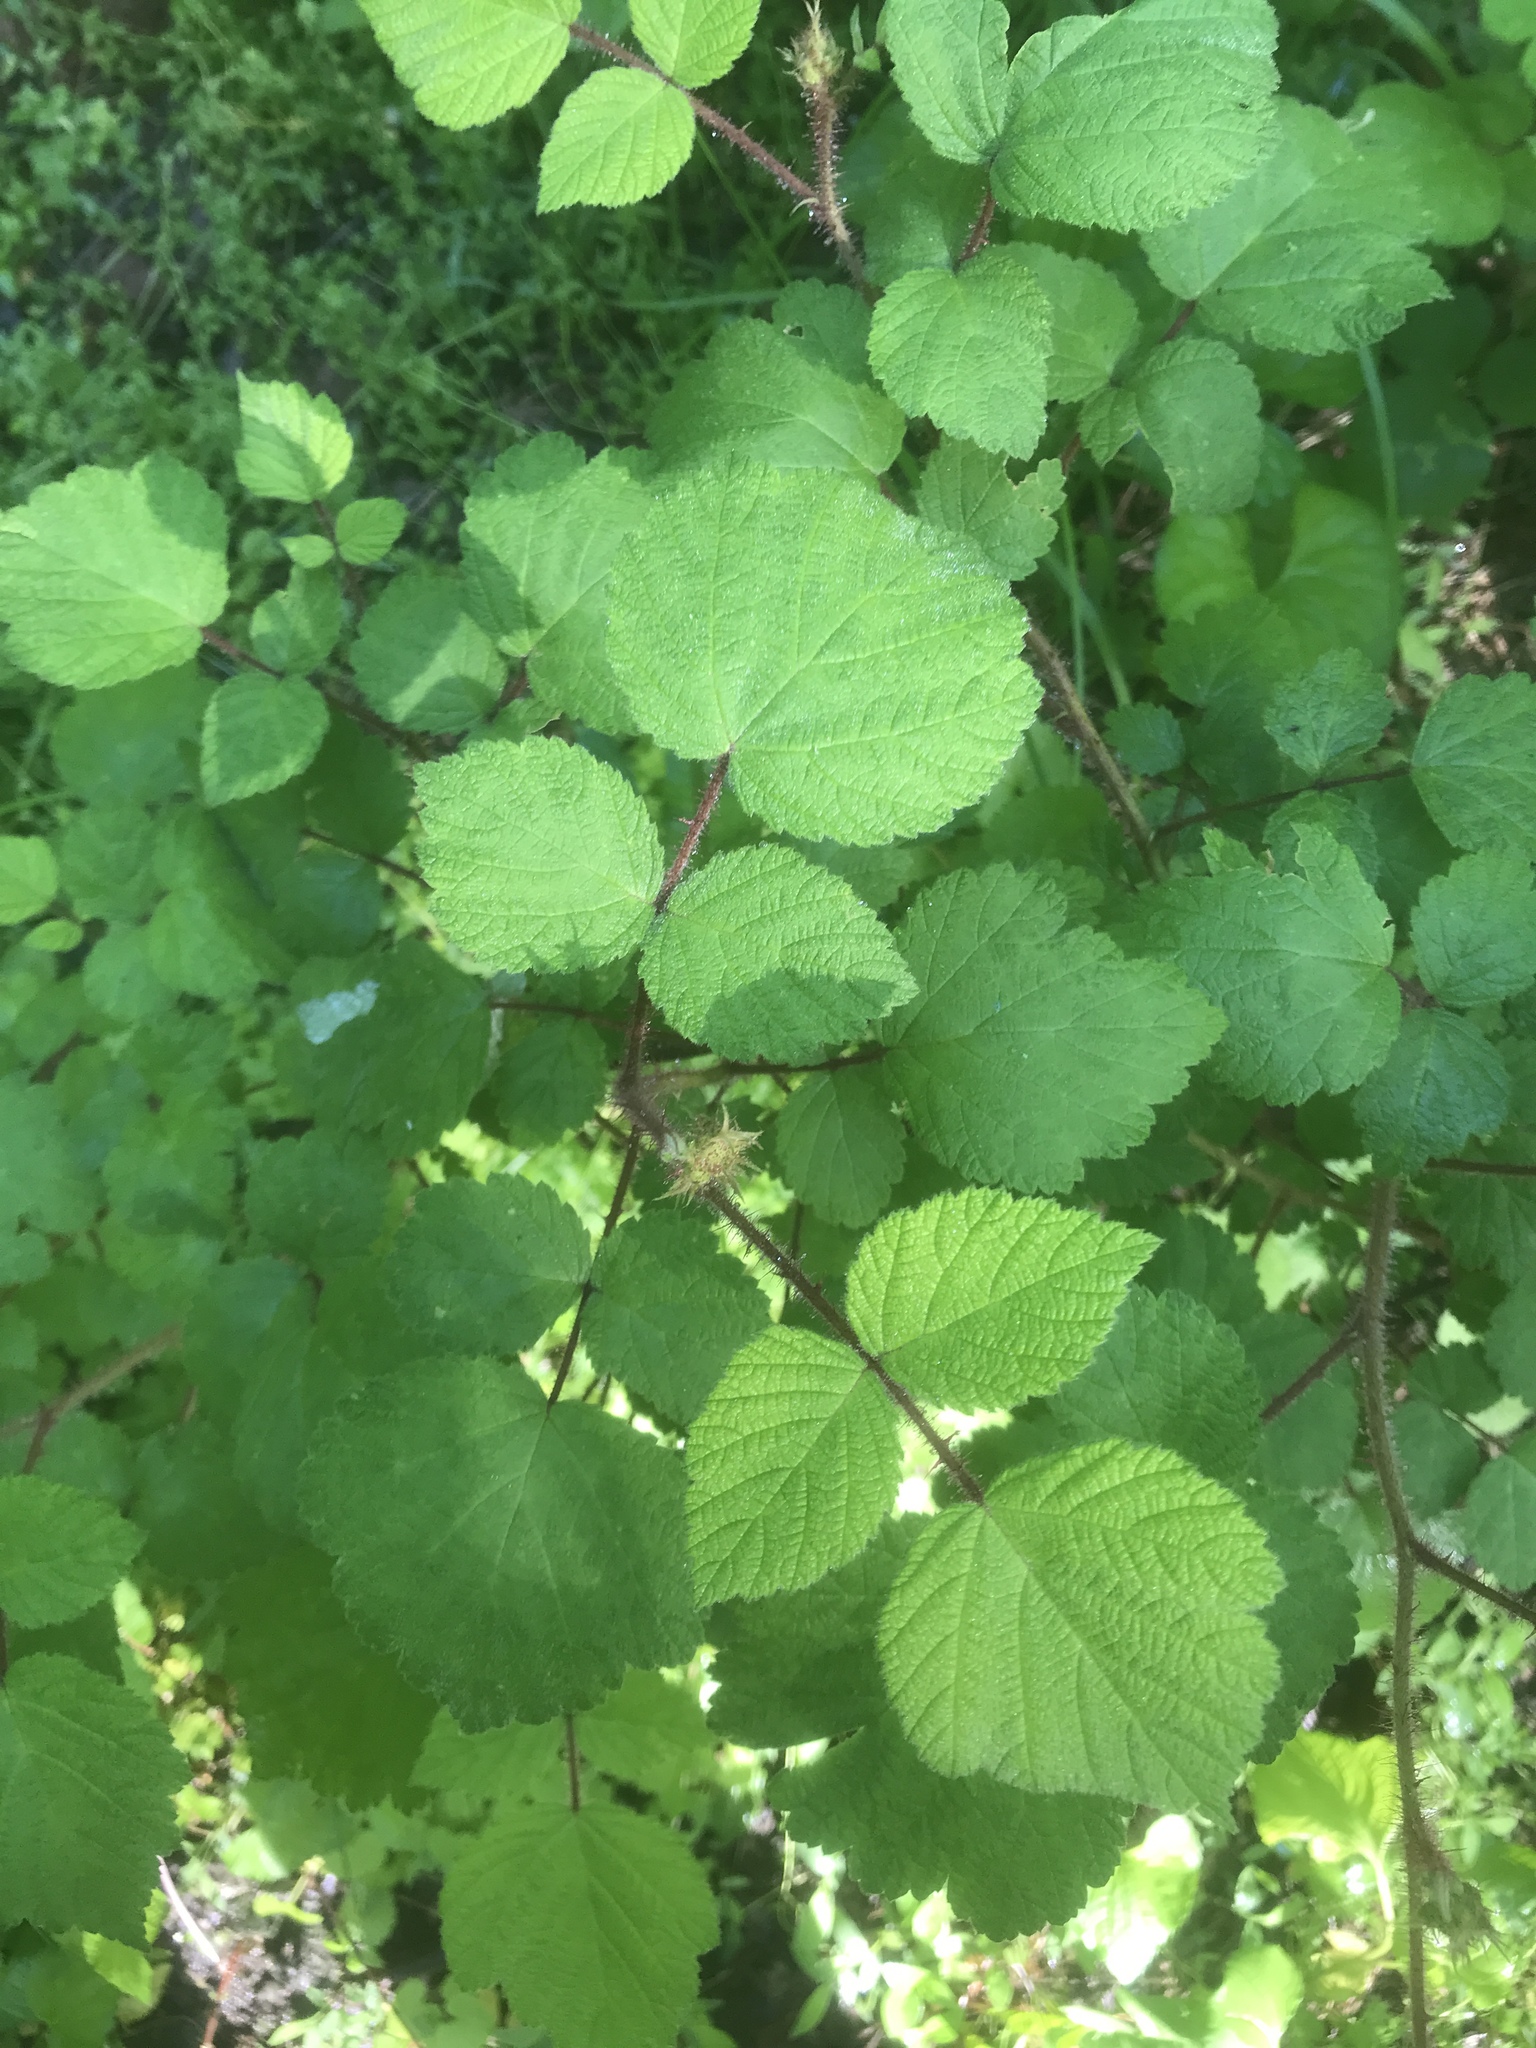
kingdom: Plantae
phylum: Tracheophyta
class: Magnoliopsida
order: Rosales
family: Rosaceae
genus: Rubus
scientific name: Rubus phoenicolasius
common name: Japanese wineberry
